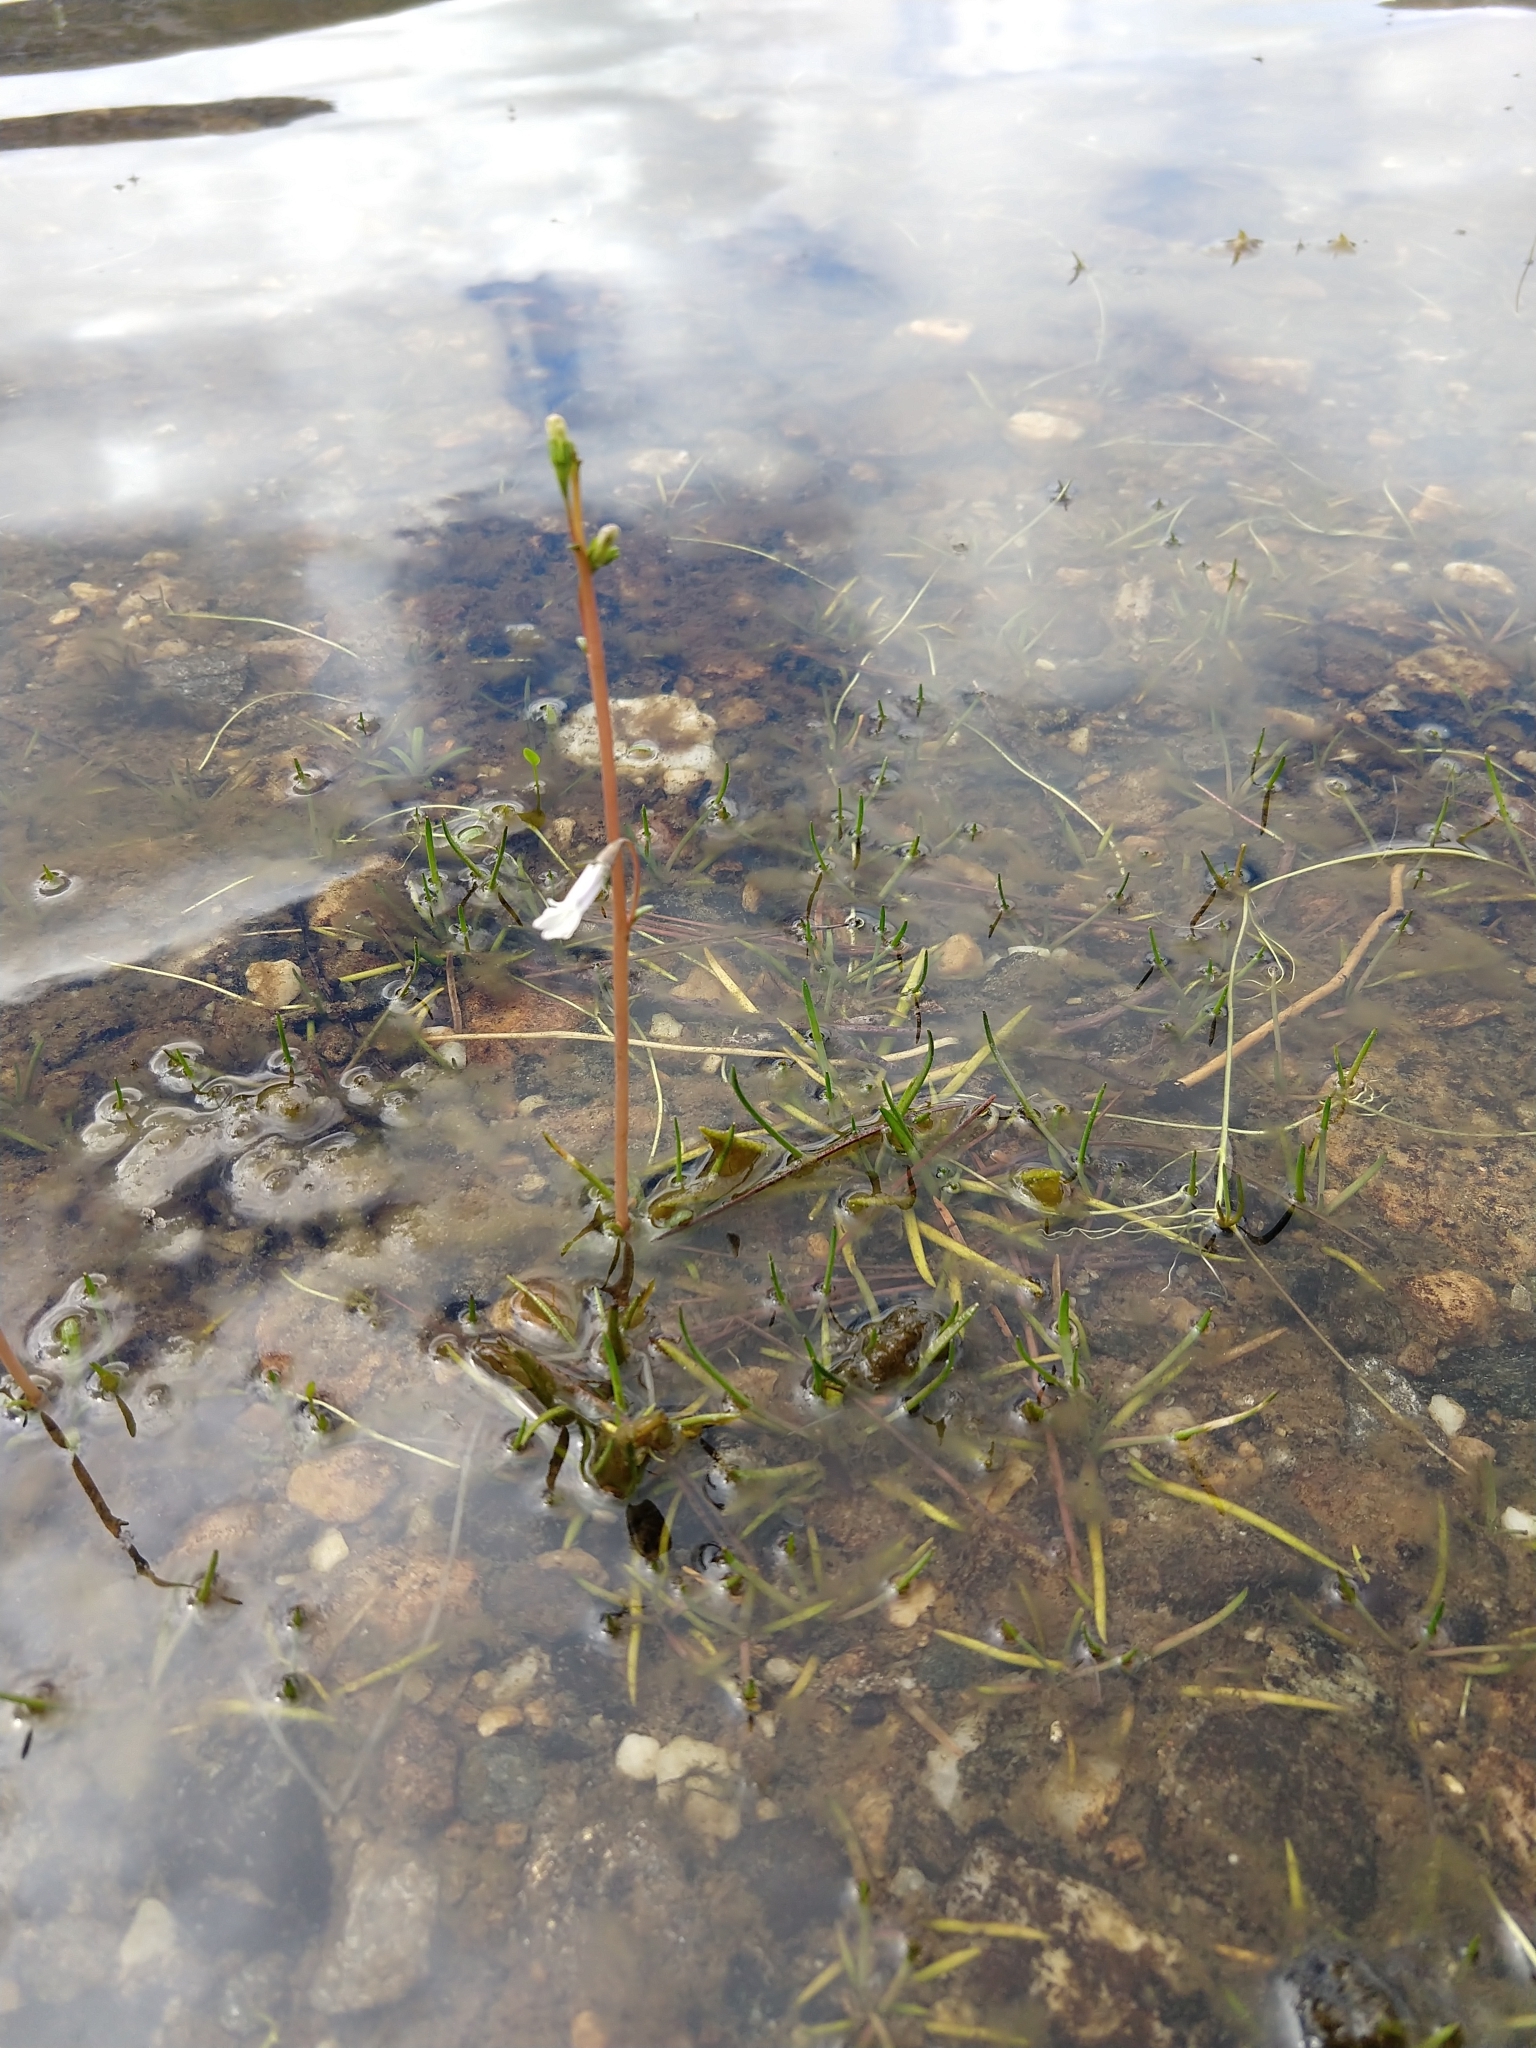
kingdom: Plantae
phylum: Tracheophyta
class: Magnoliopsida
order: Asterales
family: Campanulaceae
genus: Lobelia
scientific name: Lobelia dortmanna
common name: Water lobelia
